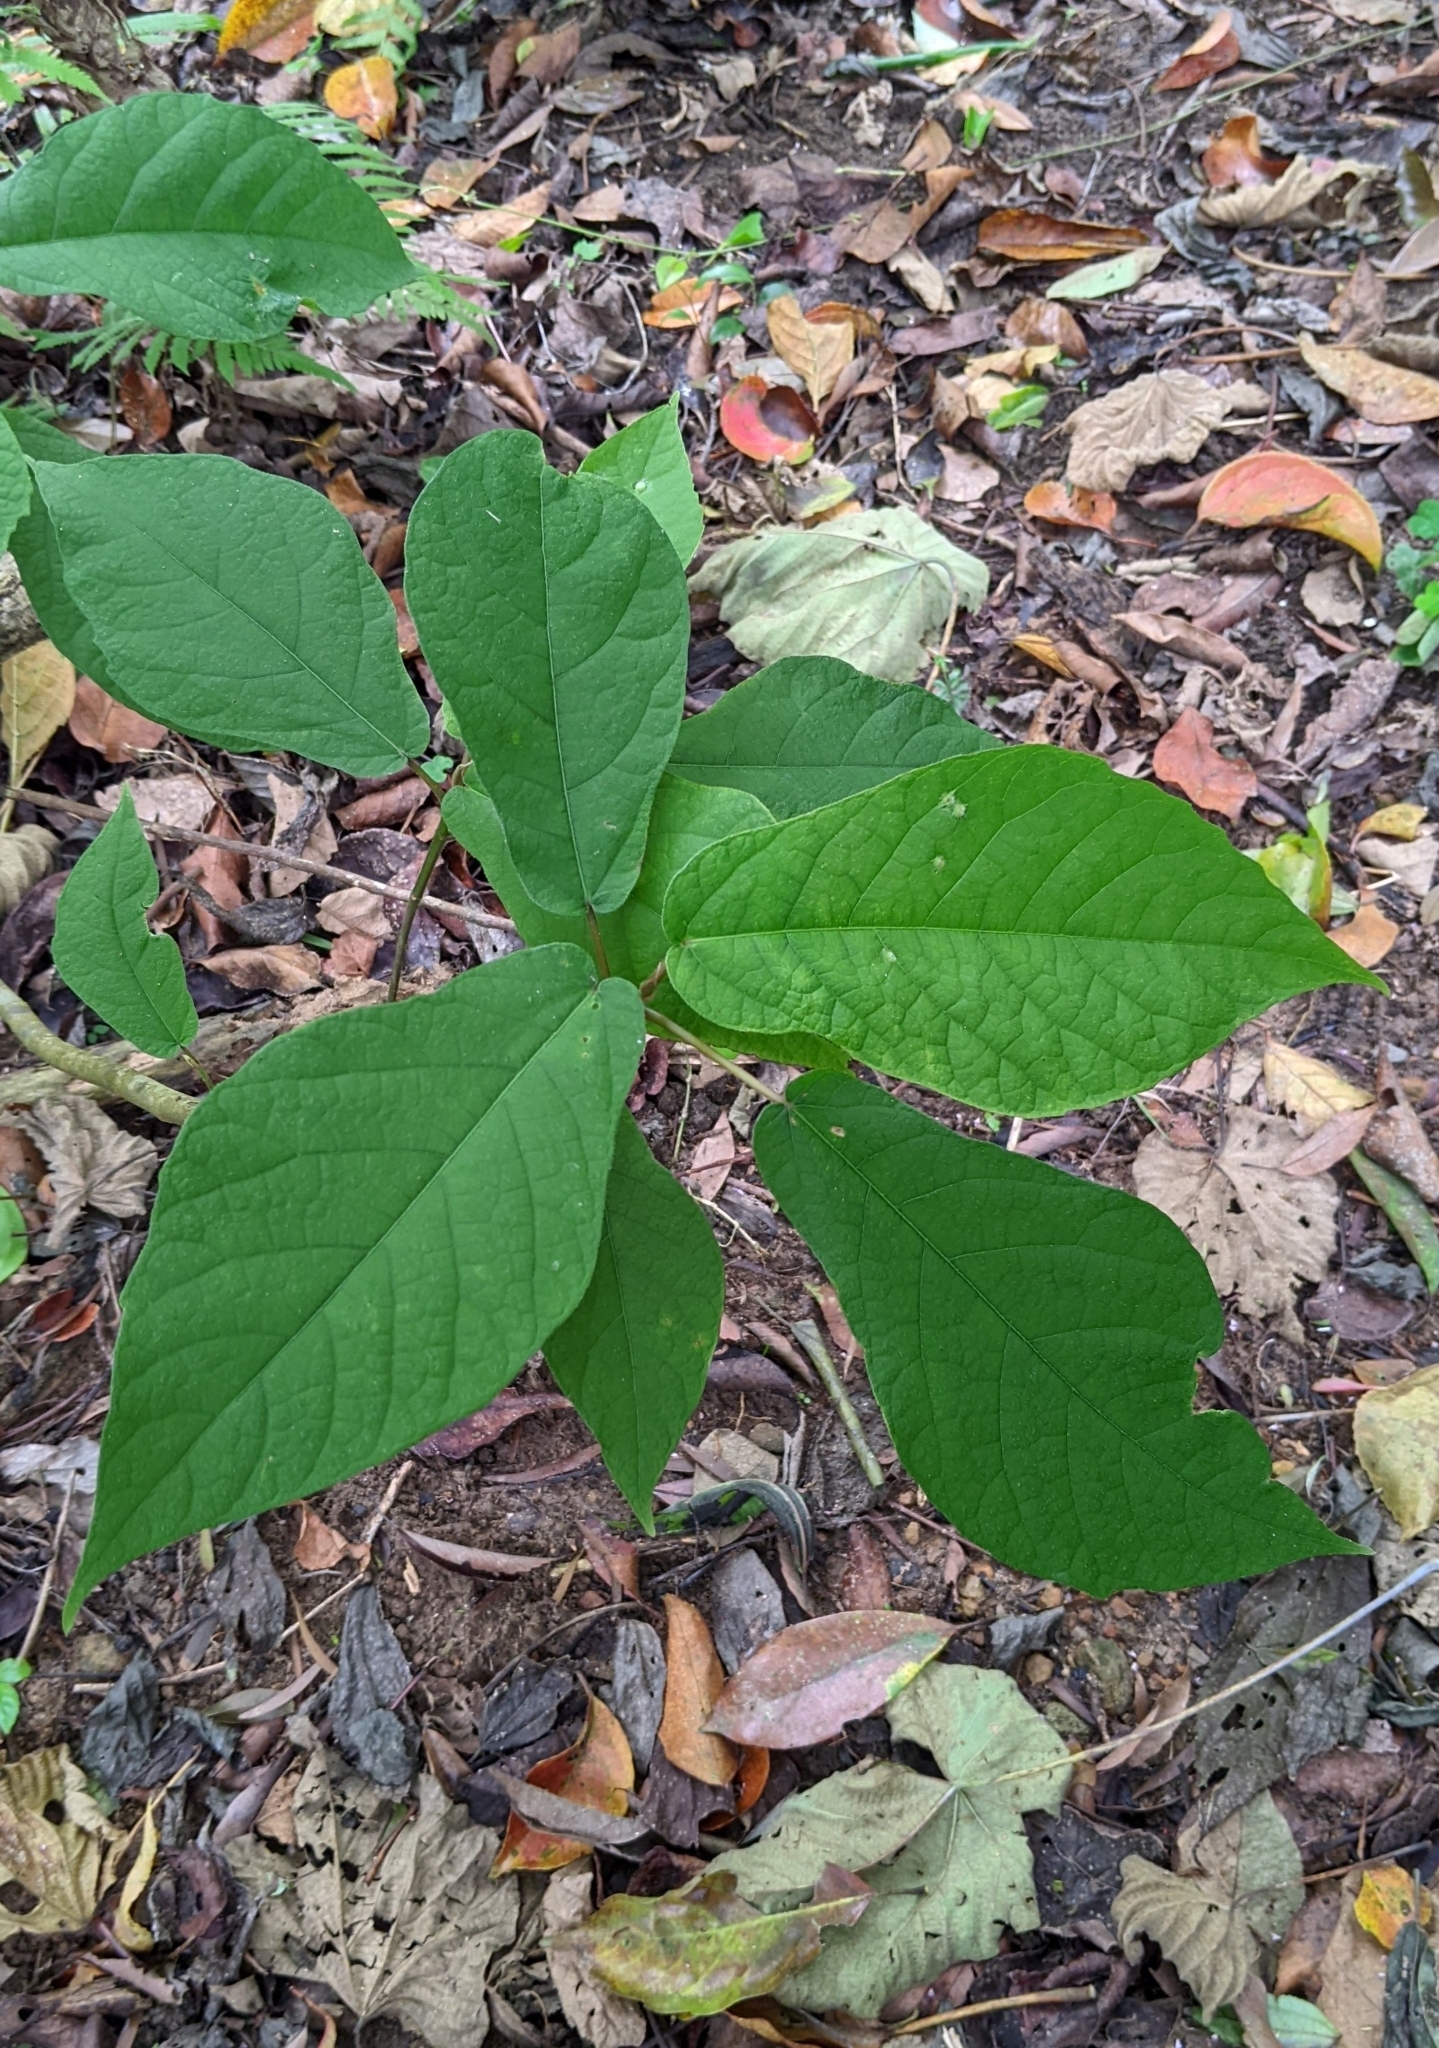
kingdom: Plantae
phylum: Tracheophyta
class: Magnoliopsida
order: Rosales
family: Moraceae
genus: Ficus
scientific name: Ficus erecta
